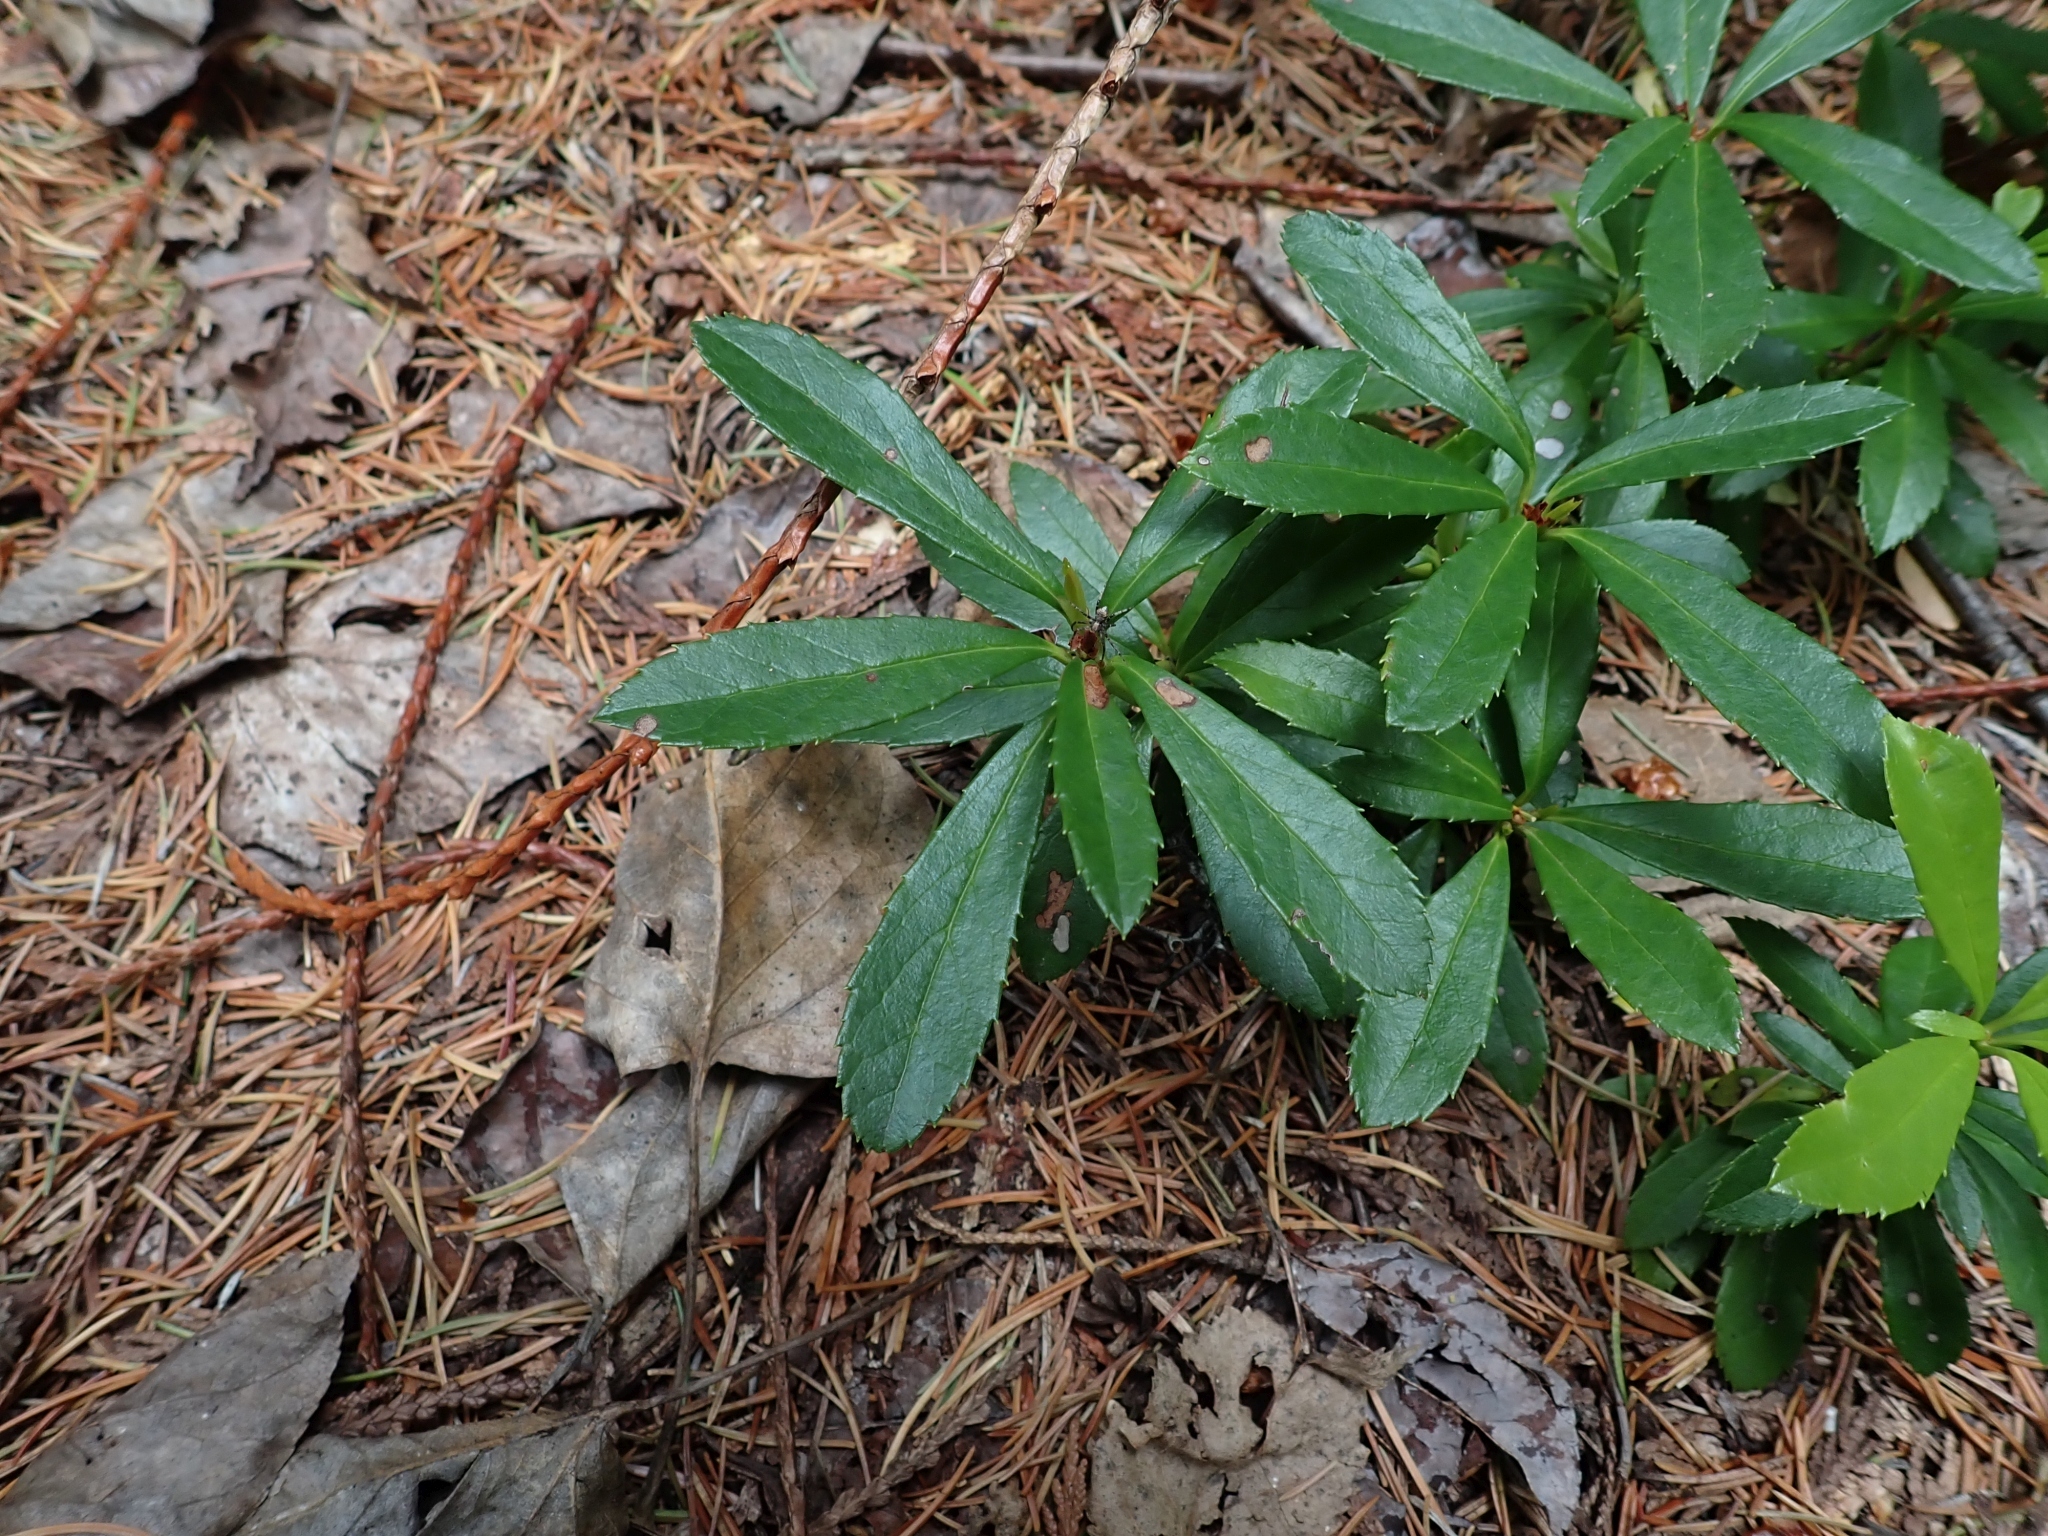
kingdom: Plantae
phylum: Tracheophyta
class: Magnoliopsida
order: Ericales
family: Ericaceae
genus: Chimaphila
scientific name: Chimaphila umbellata
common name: Pipsissewa
